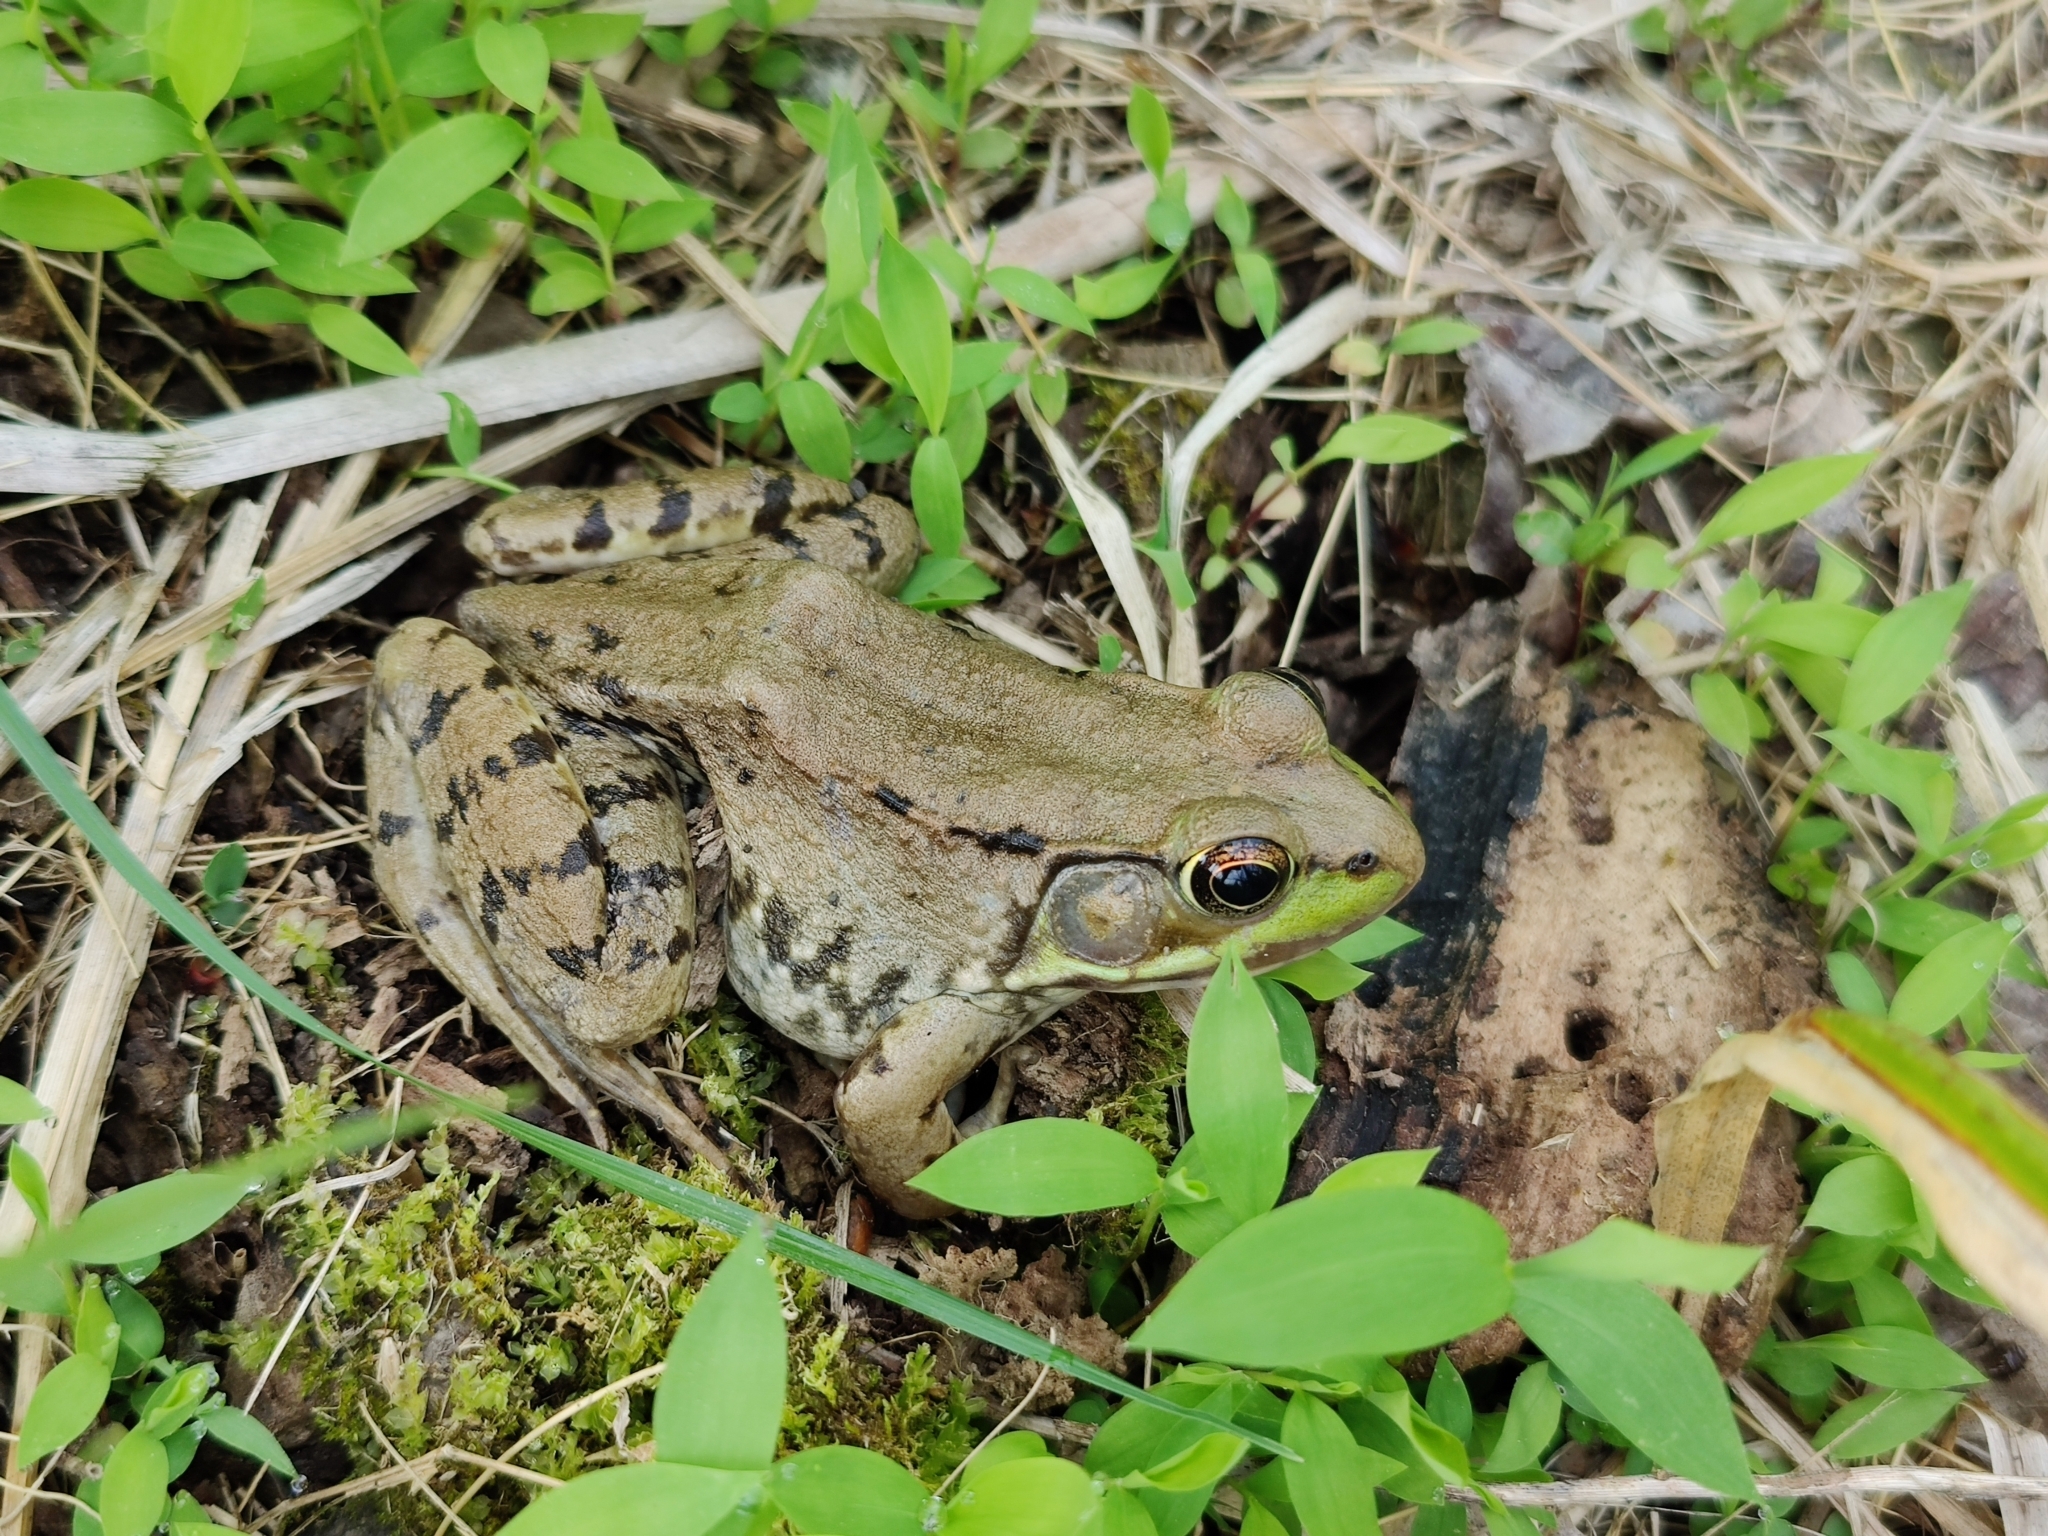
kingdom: Animalia
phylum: Chordata
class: Amphibia
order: Anura
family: Ranidae
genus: Lithobates
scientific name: Lithobates clamitans
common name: Green frog
